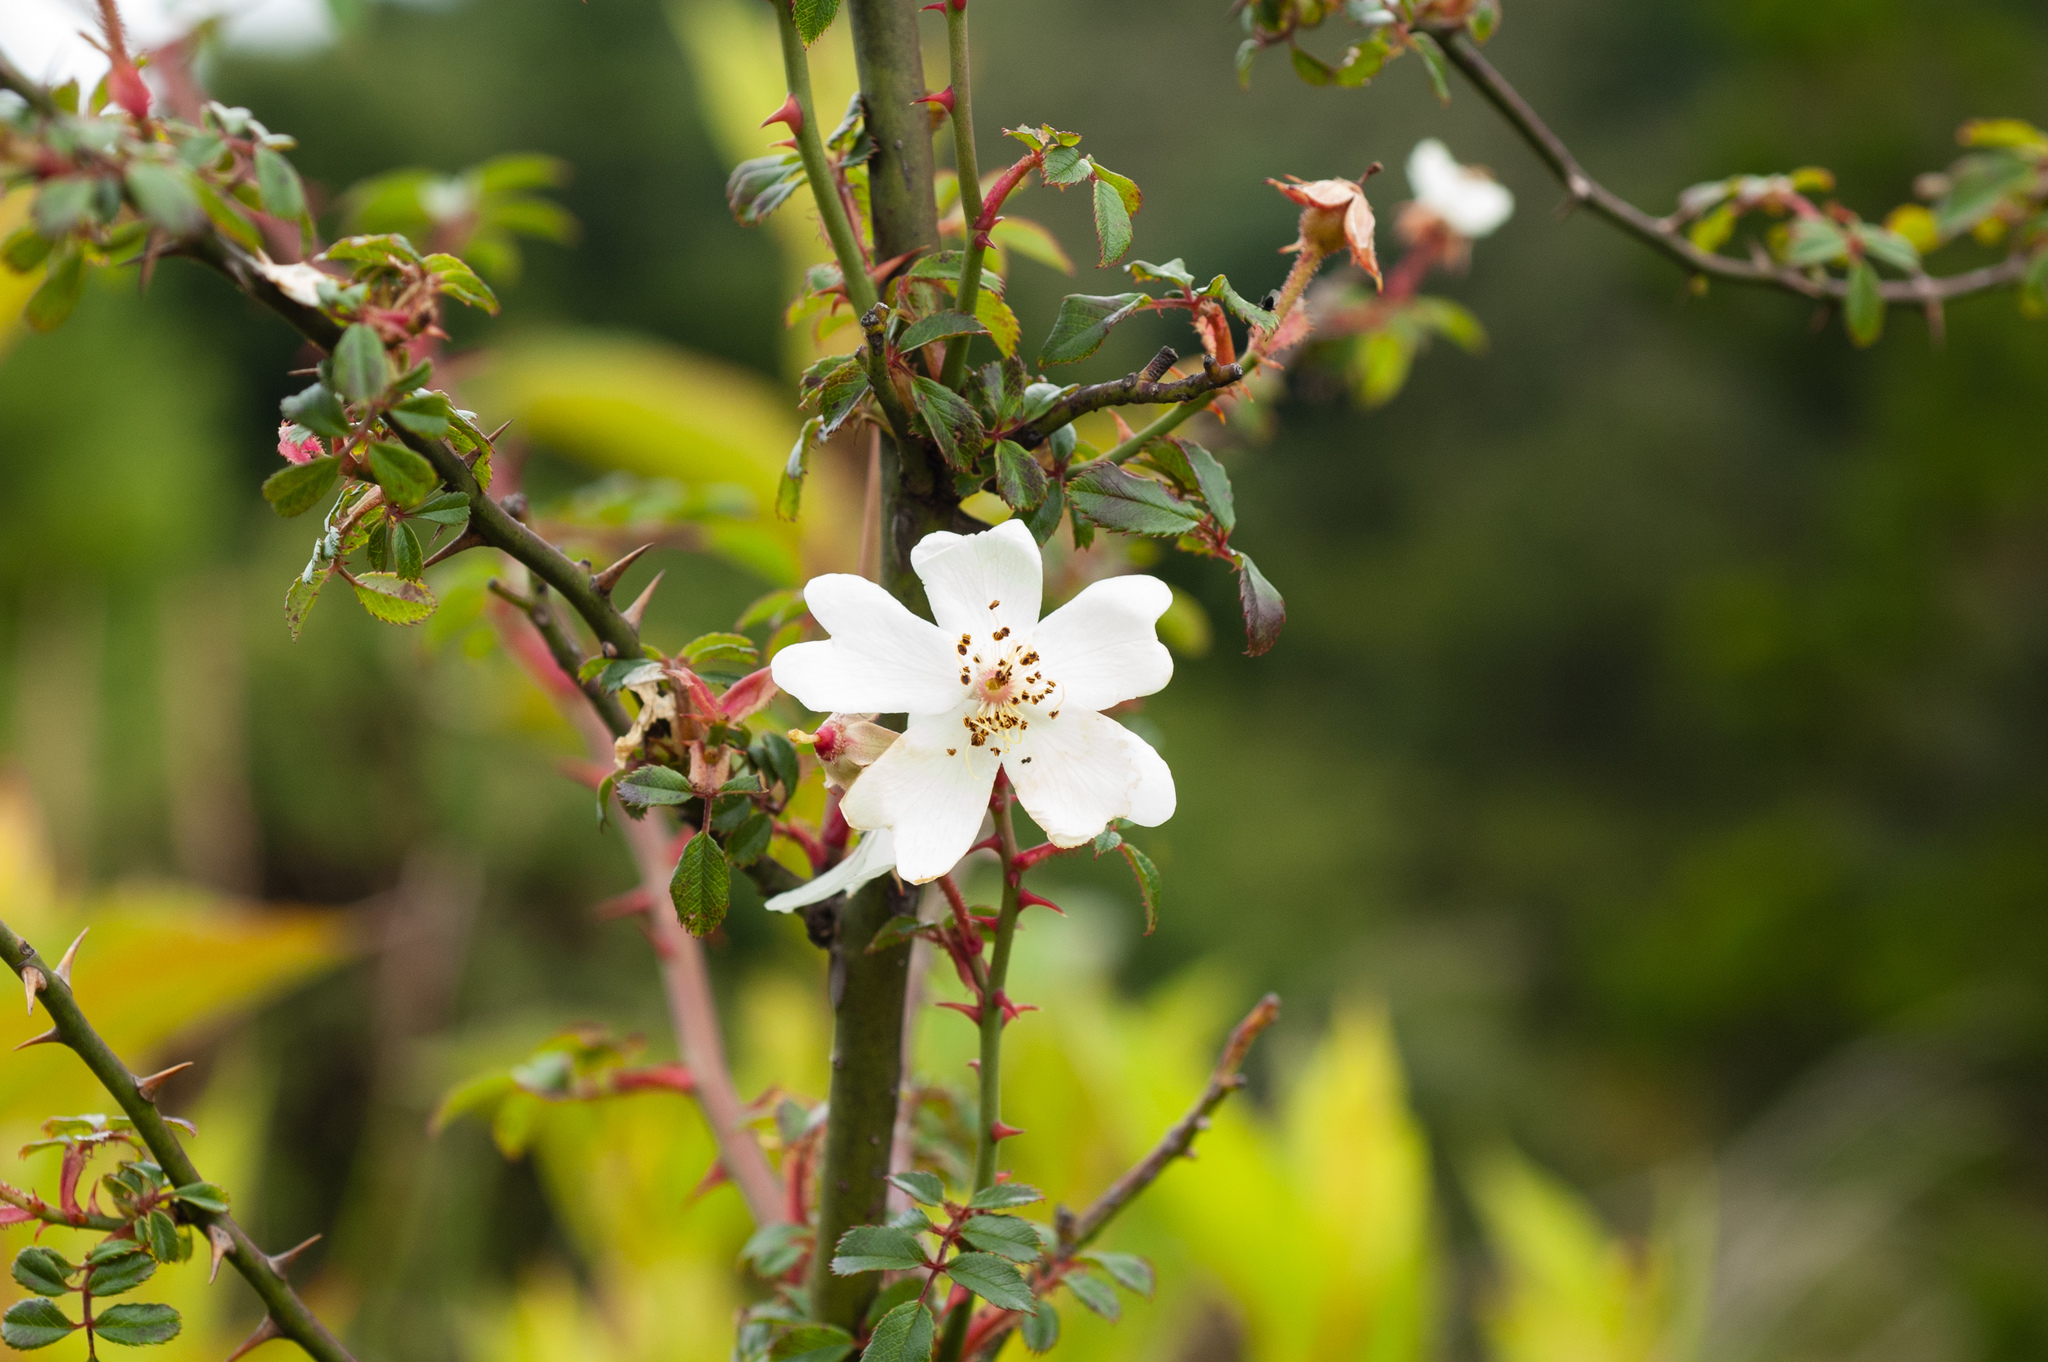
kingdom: Plantae
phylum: Tracheophyta
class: Magnoliopsida
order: Rosales
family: Rosaceae
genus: Rosa
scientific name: Rosa transmorrisonensis
